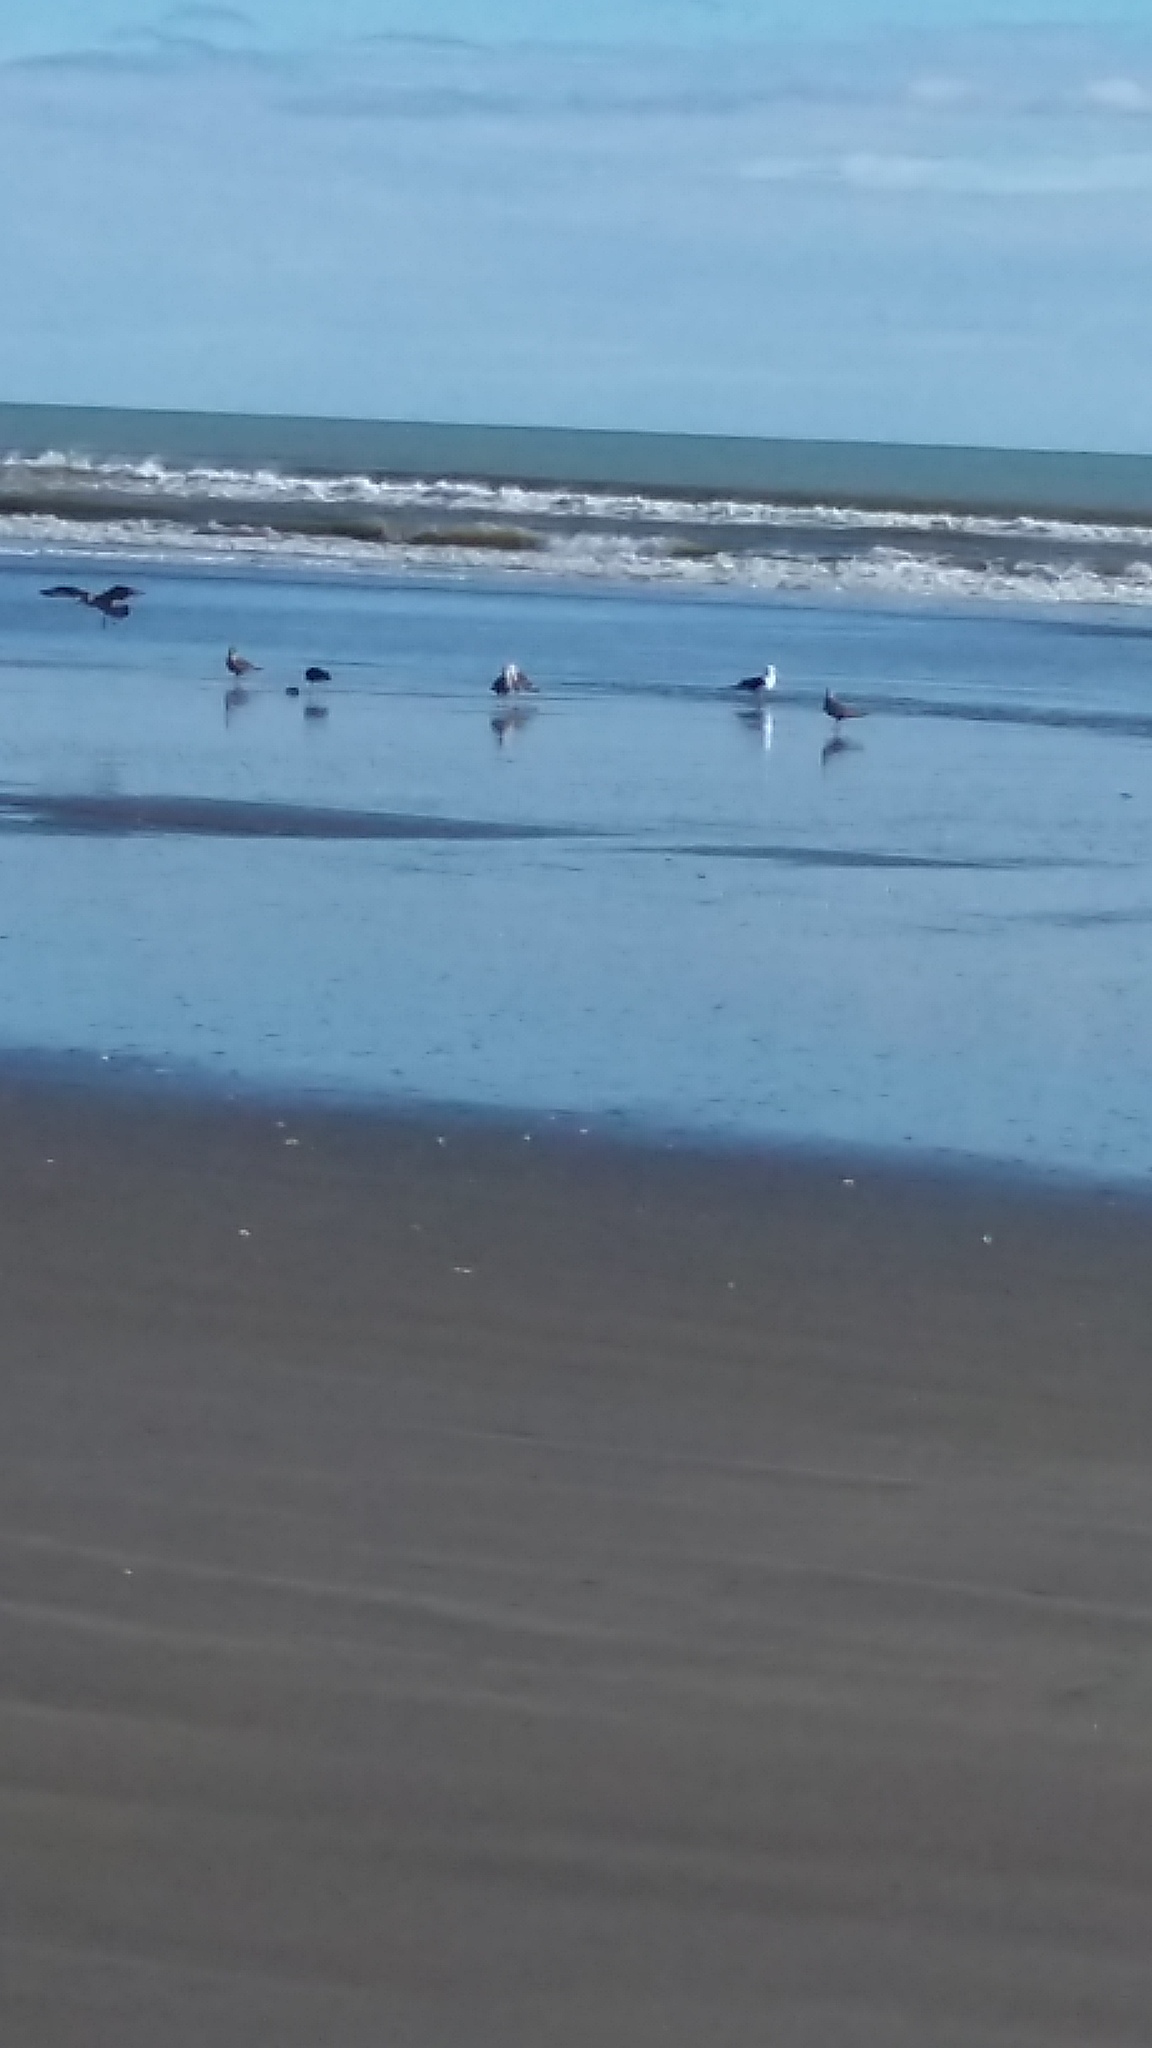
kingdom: Animalia
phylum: Chordata
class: Aves
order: Charadriiformes
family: Laridae
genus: Larus
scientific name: Larus dominicanus
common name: Kelp gull
